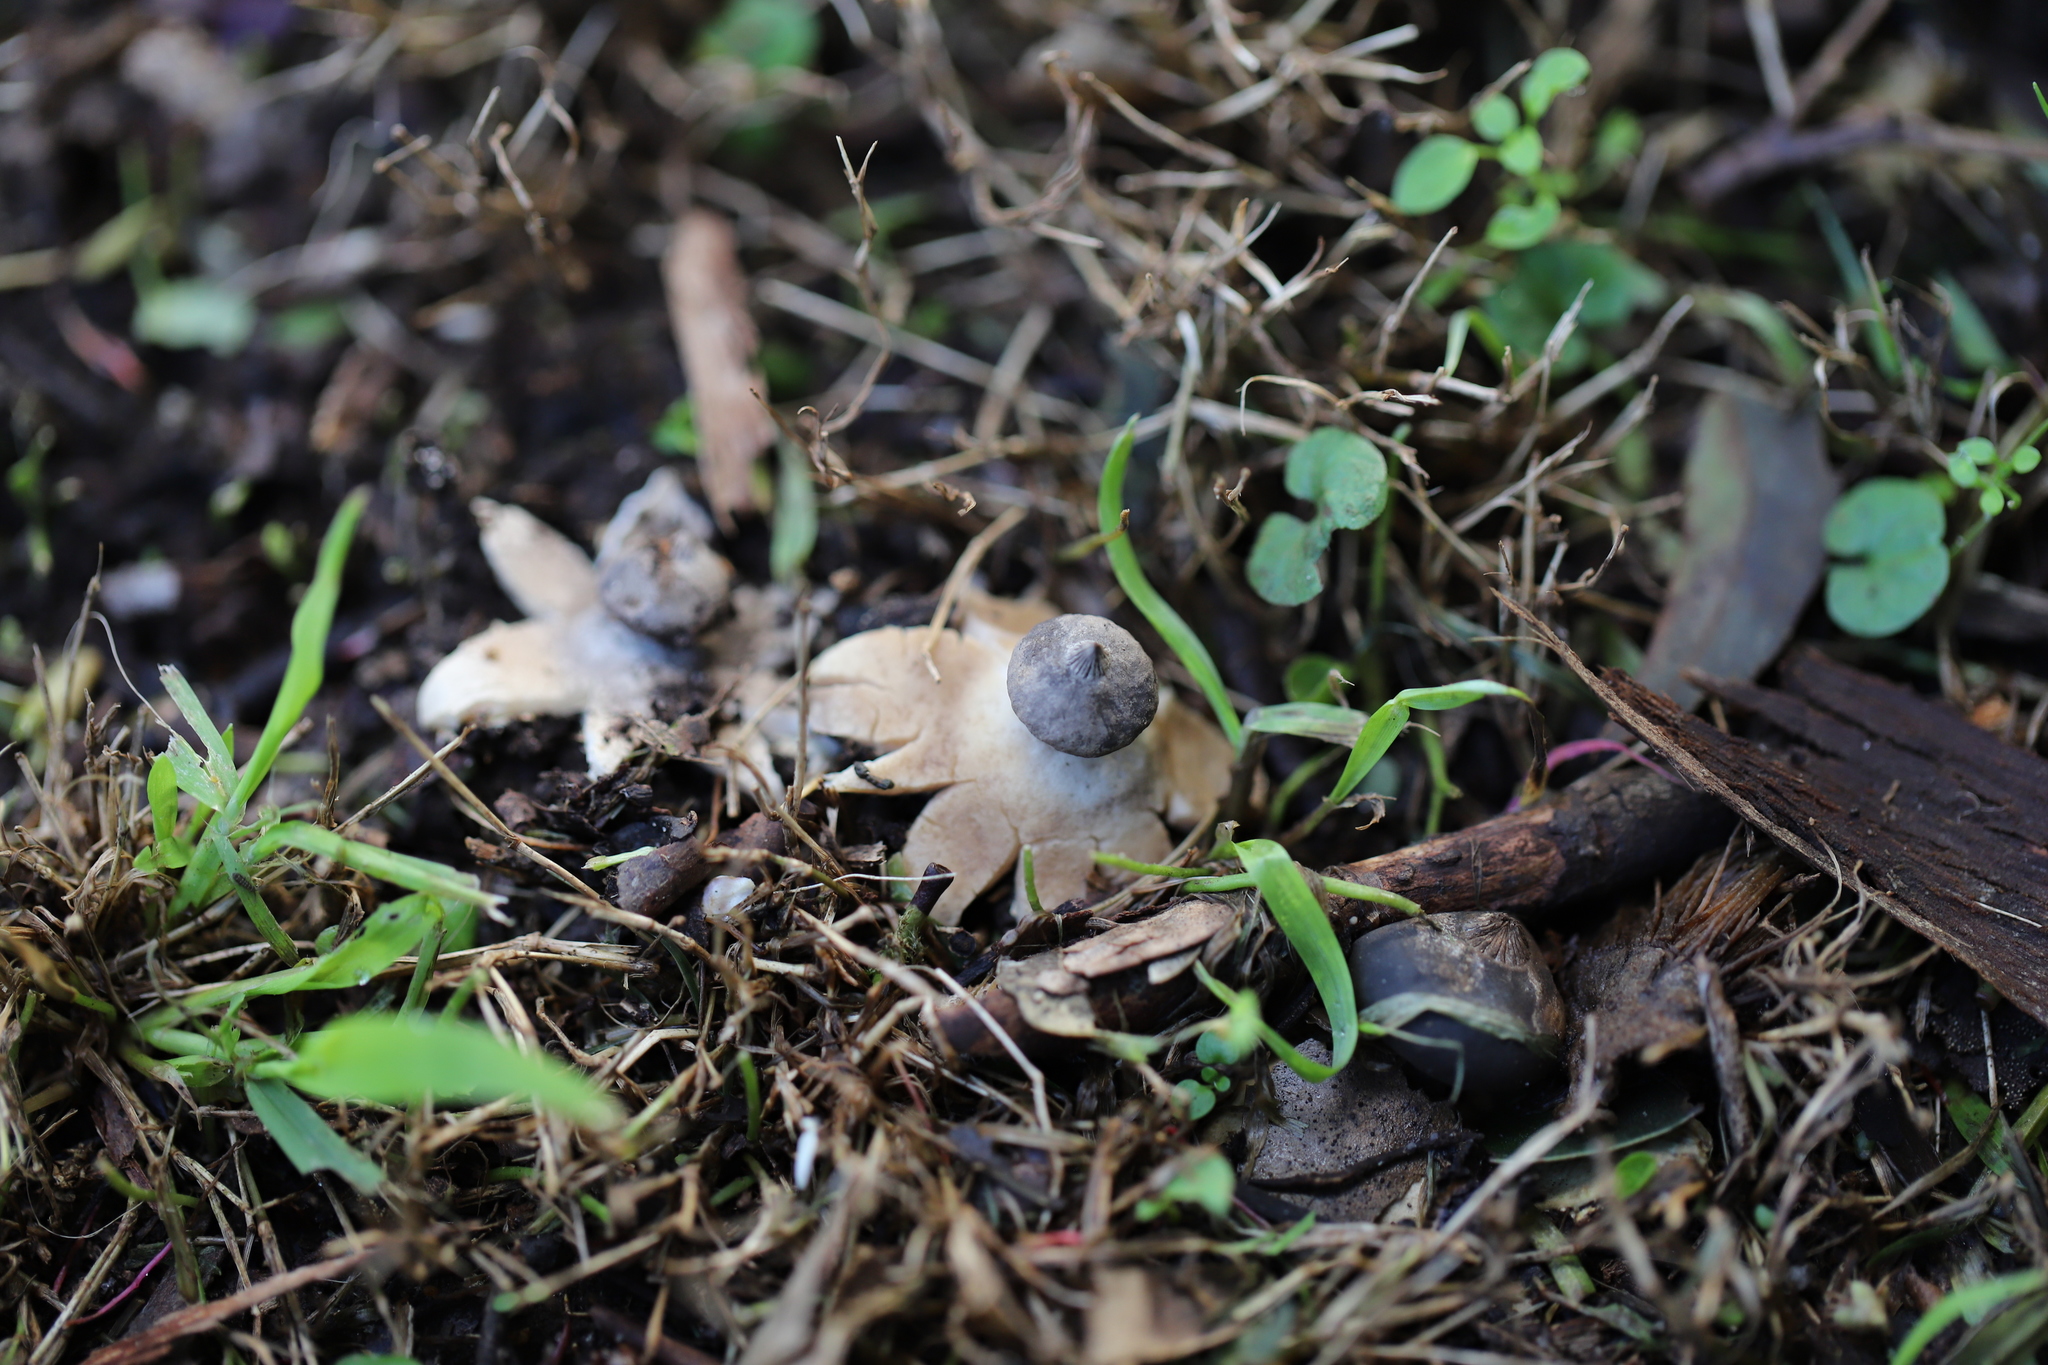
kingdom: Fungi
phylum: Basidiomycota
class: Agaricomycetes
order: Geastrales
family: Geastraceae
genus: Geastrum
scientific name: Geastrum pectinatum
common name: Beaked earthstar
